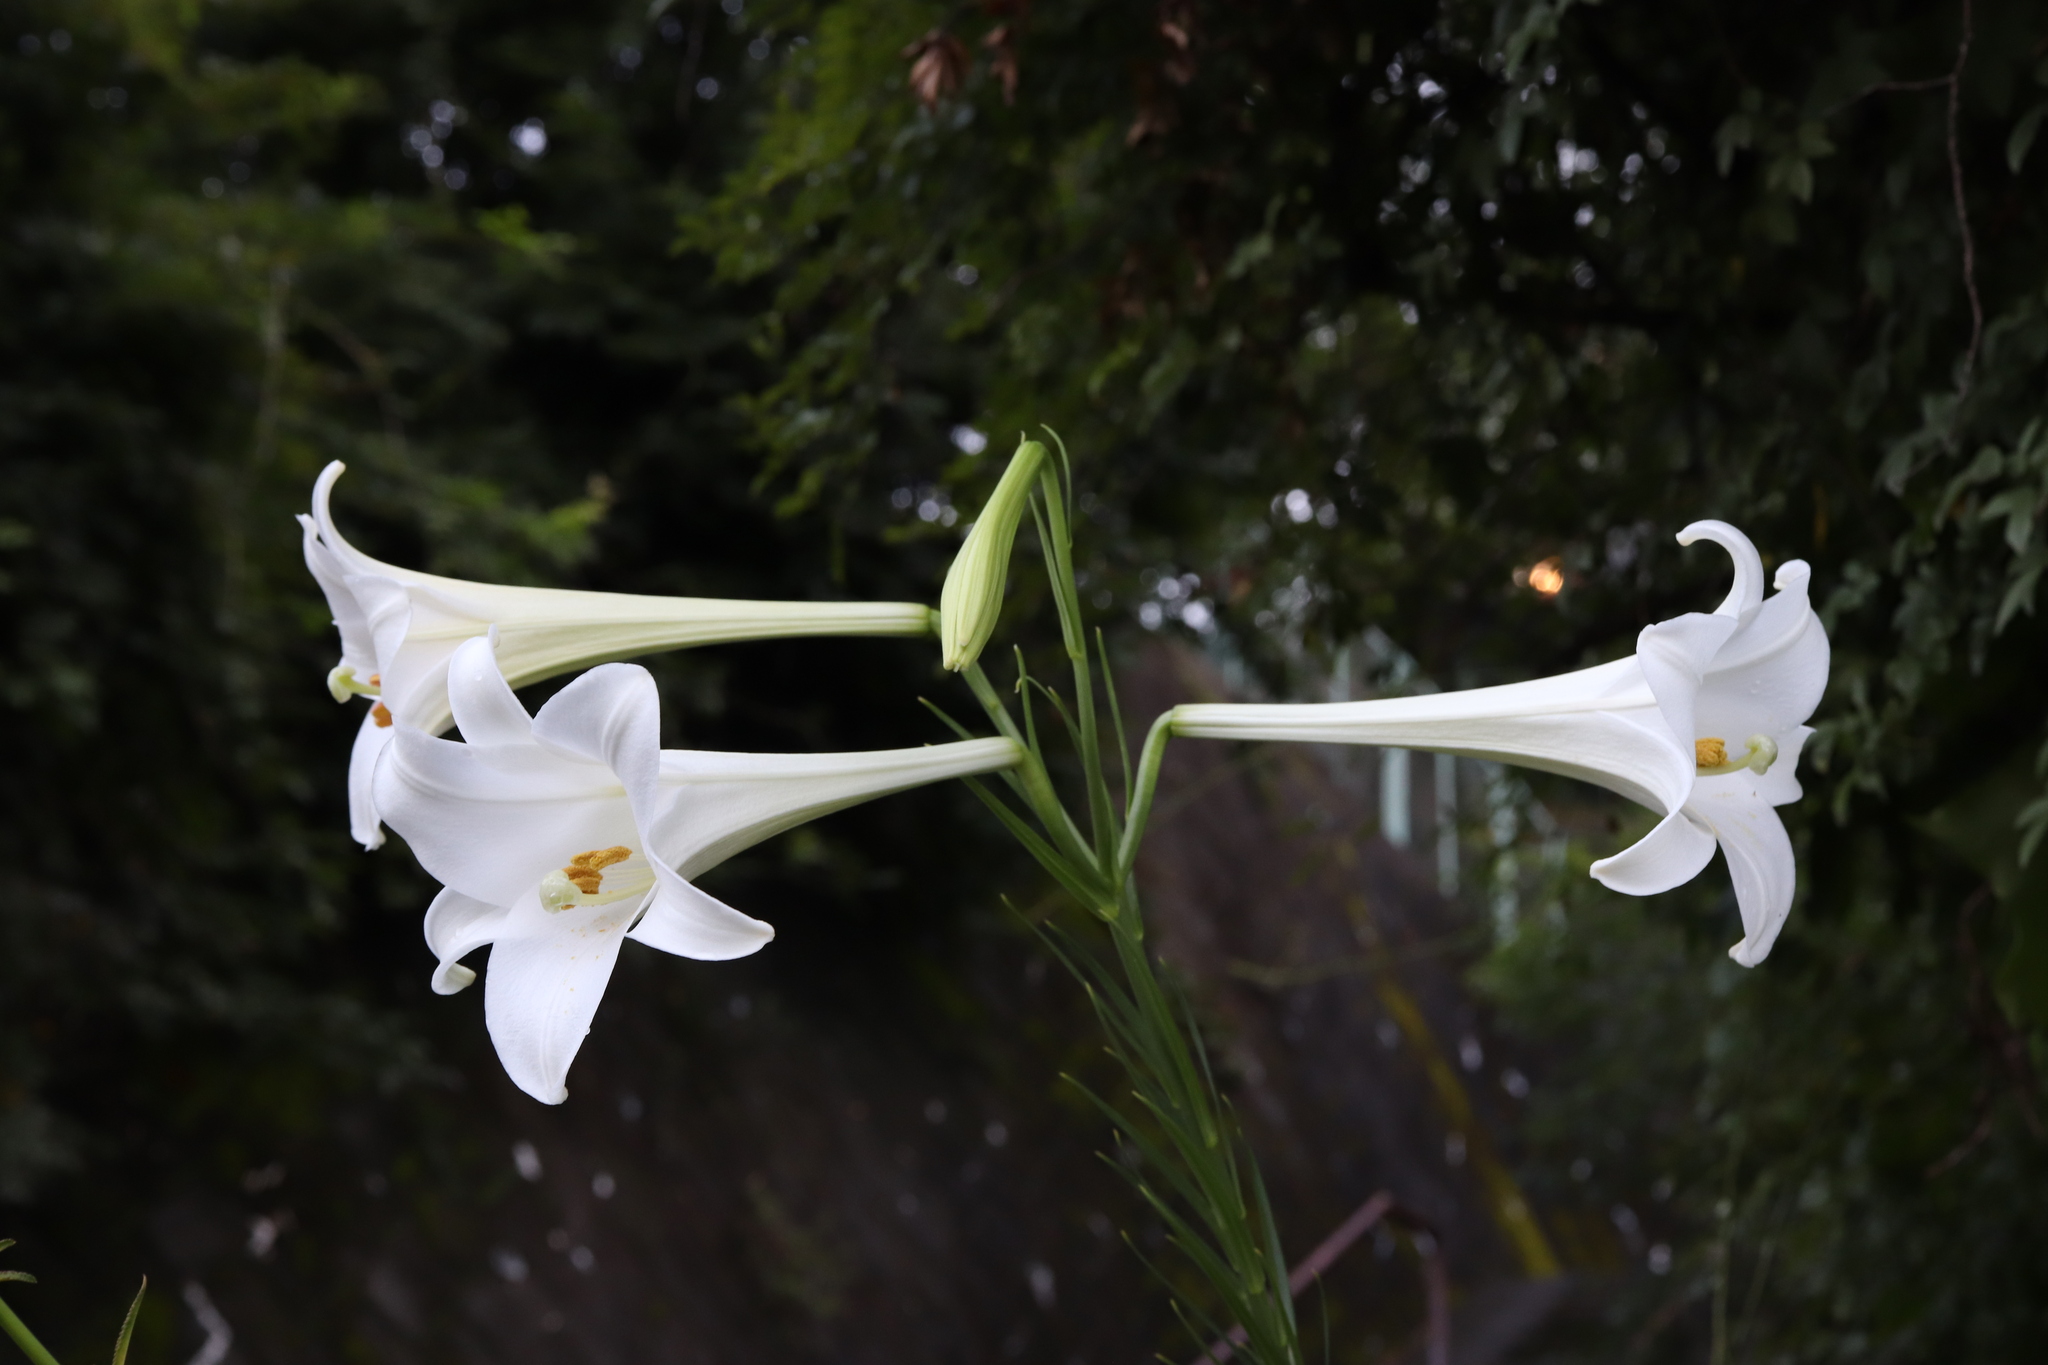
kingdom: Plantae
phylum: Tracheophyta
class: Liliopsida
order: Liliales
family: Liliaceae
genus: Lilium
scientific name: Lilium formosanum
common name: Formosa lily
